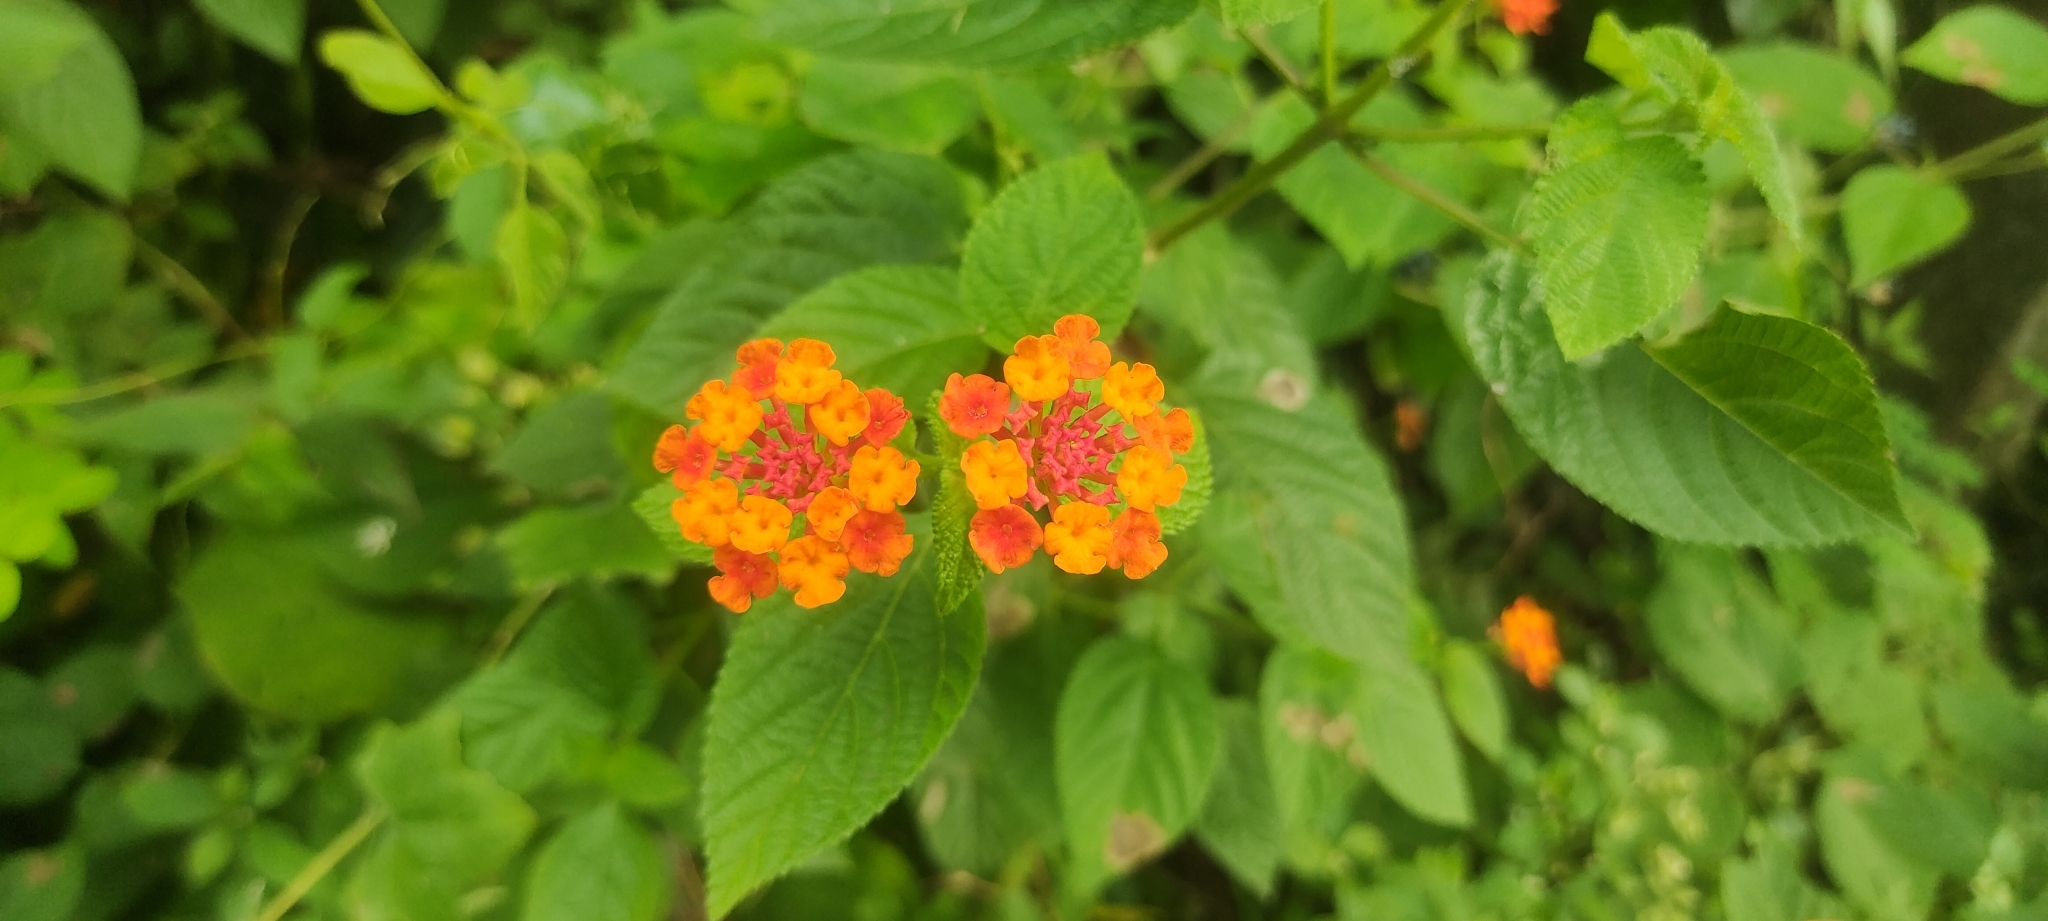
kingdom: Plantae
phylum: Tracheophyta
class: Magnoliopsida
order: Lamiales
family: Verbenaceae
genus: Lantana
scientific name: Lantana camara
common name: Lantana
